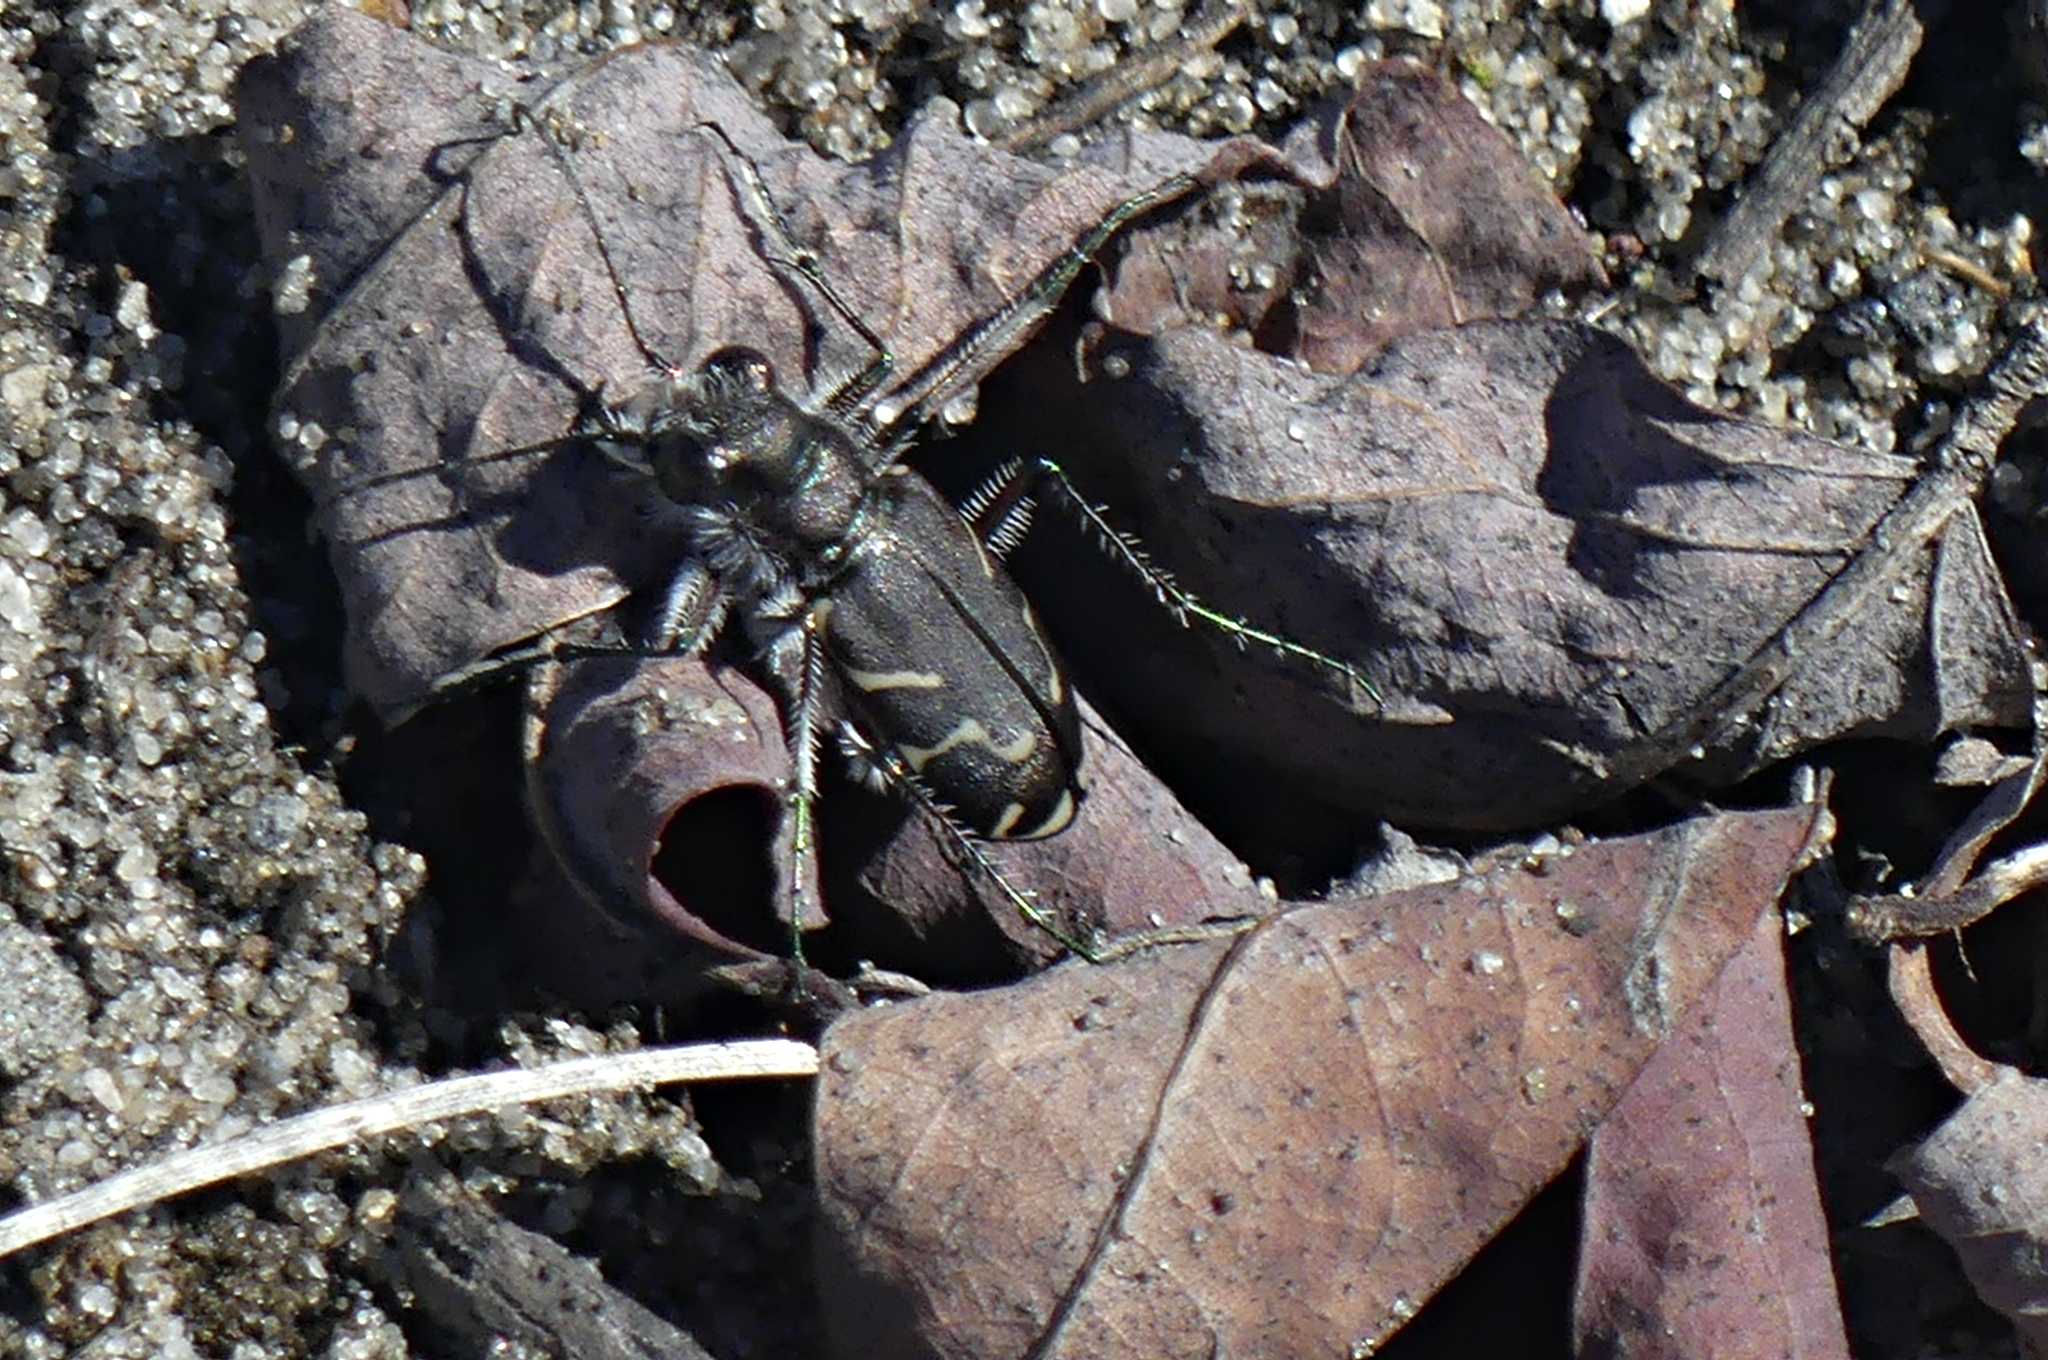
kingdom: Animalia
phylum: Arthropoda
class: Insecta
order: Coleoptera
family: Carabidae
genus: Cicindela
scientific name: Cicindela tranquebarica
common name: Oblique-lined tiger beetle
